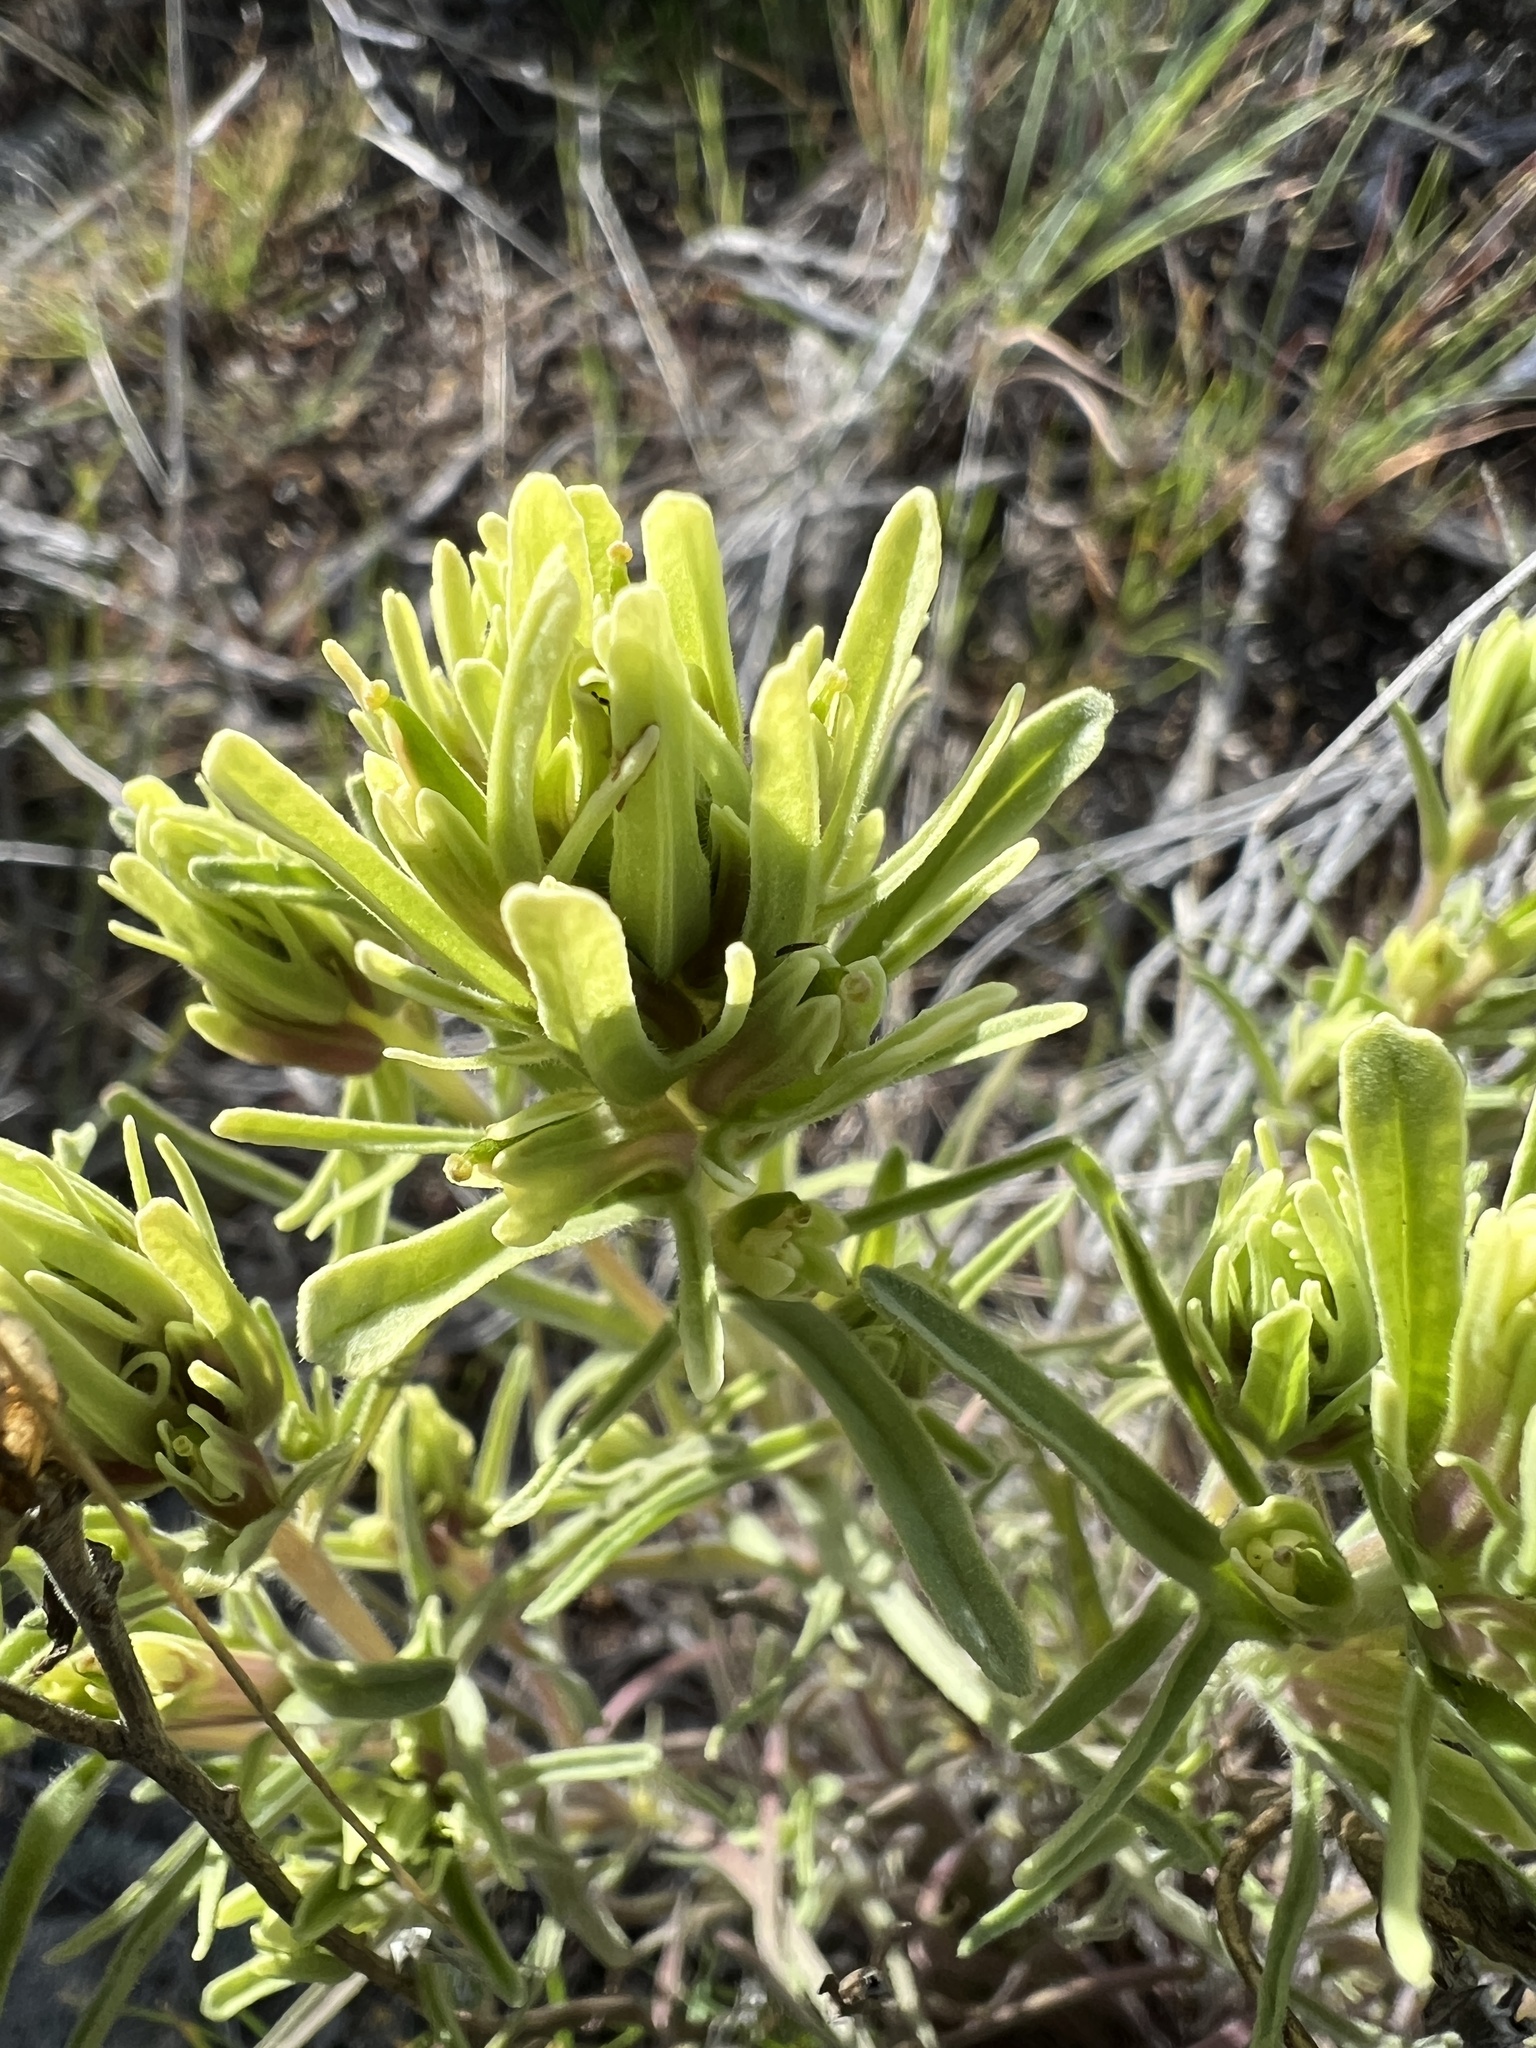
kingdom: Plantae
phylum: Tracheophyta
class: Magnoliopsida
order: Lamiales
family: Orobanchaceae
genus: Castilleja
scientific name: Castilleja thompsonii
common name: Thompson's paintbrush
